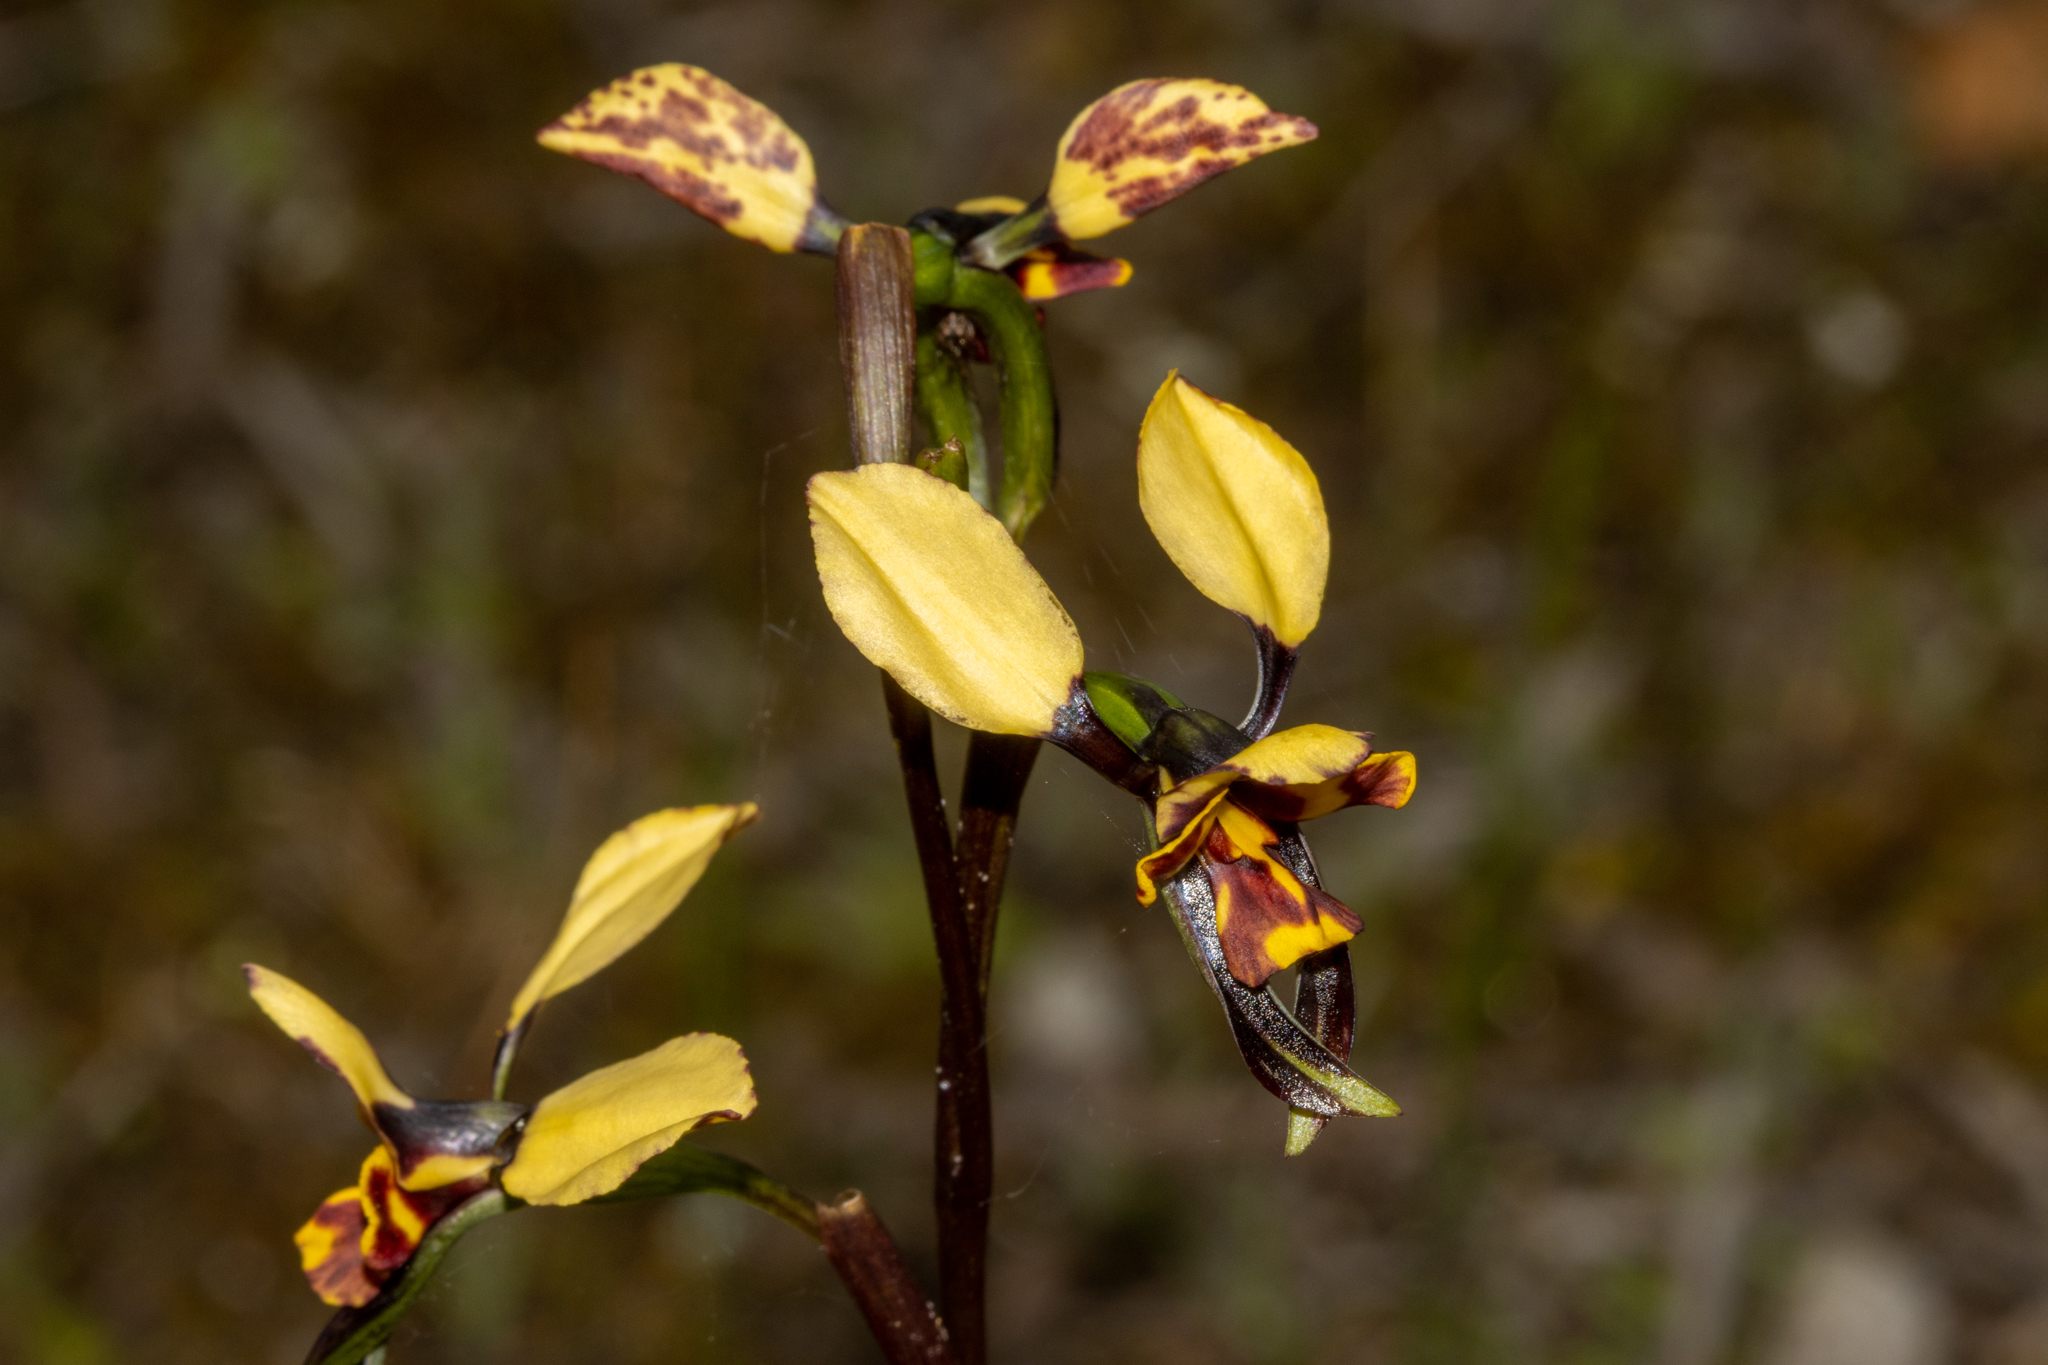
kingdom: Plantae
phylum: Tracheophyta
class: Liliopsida
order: Asparagales
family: Orchidaceae
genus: Diuris
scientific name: Diuris pardina
